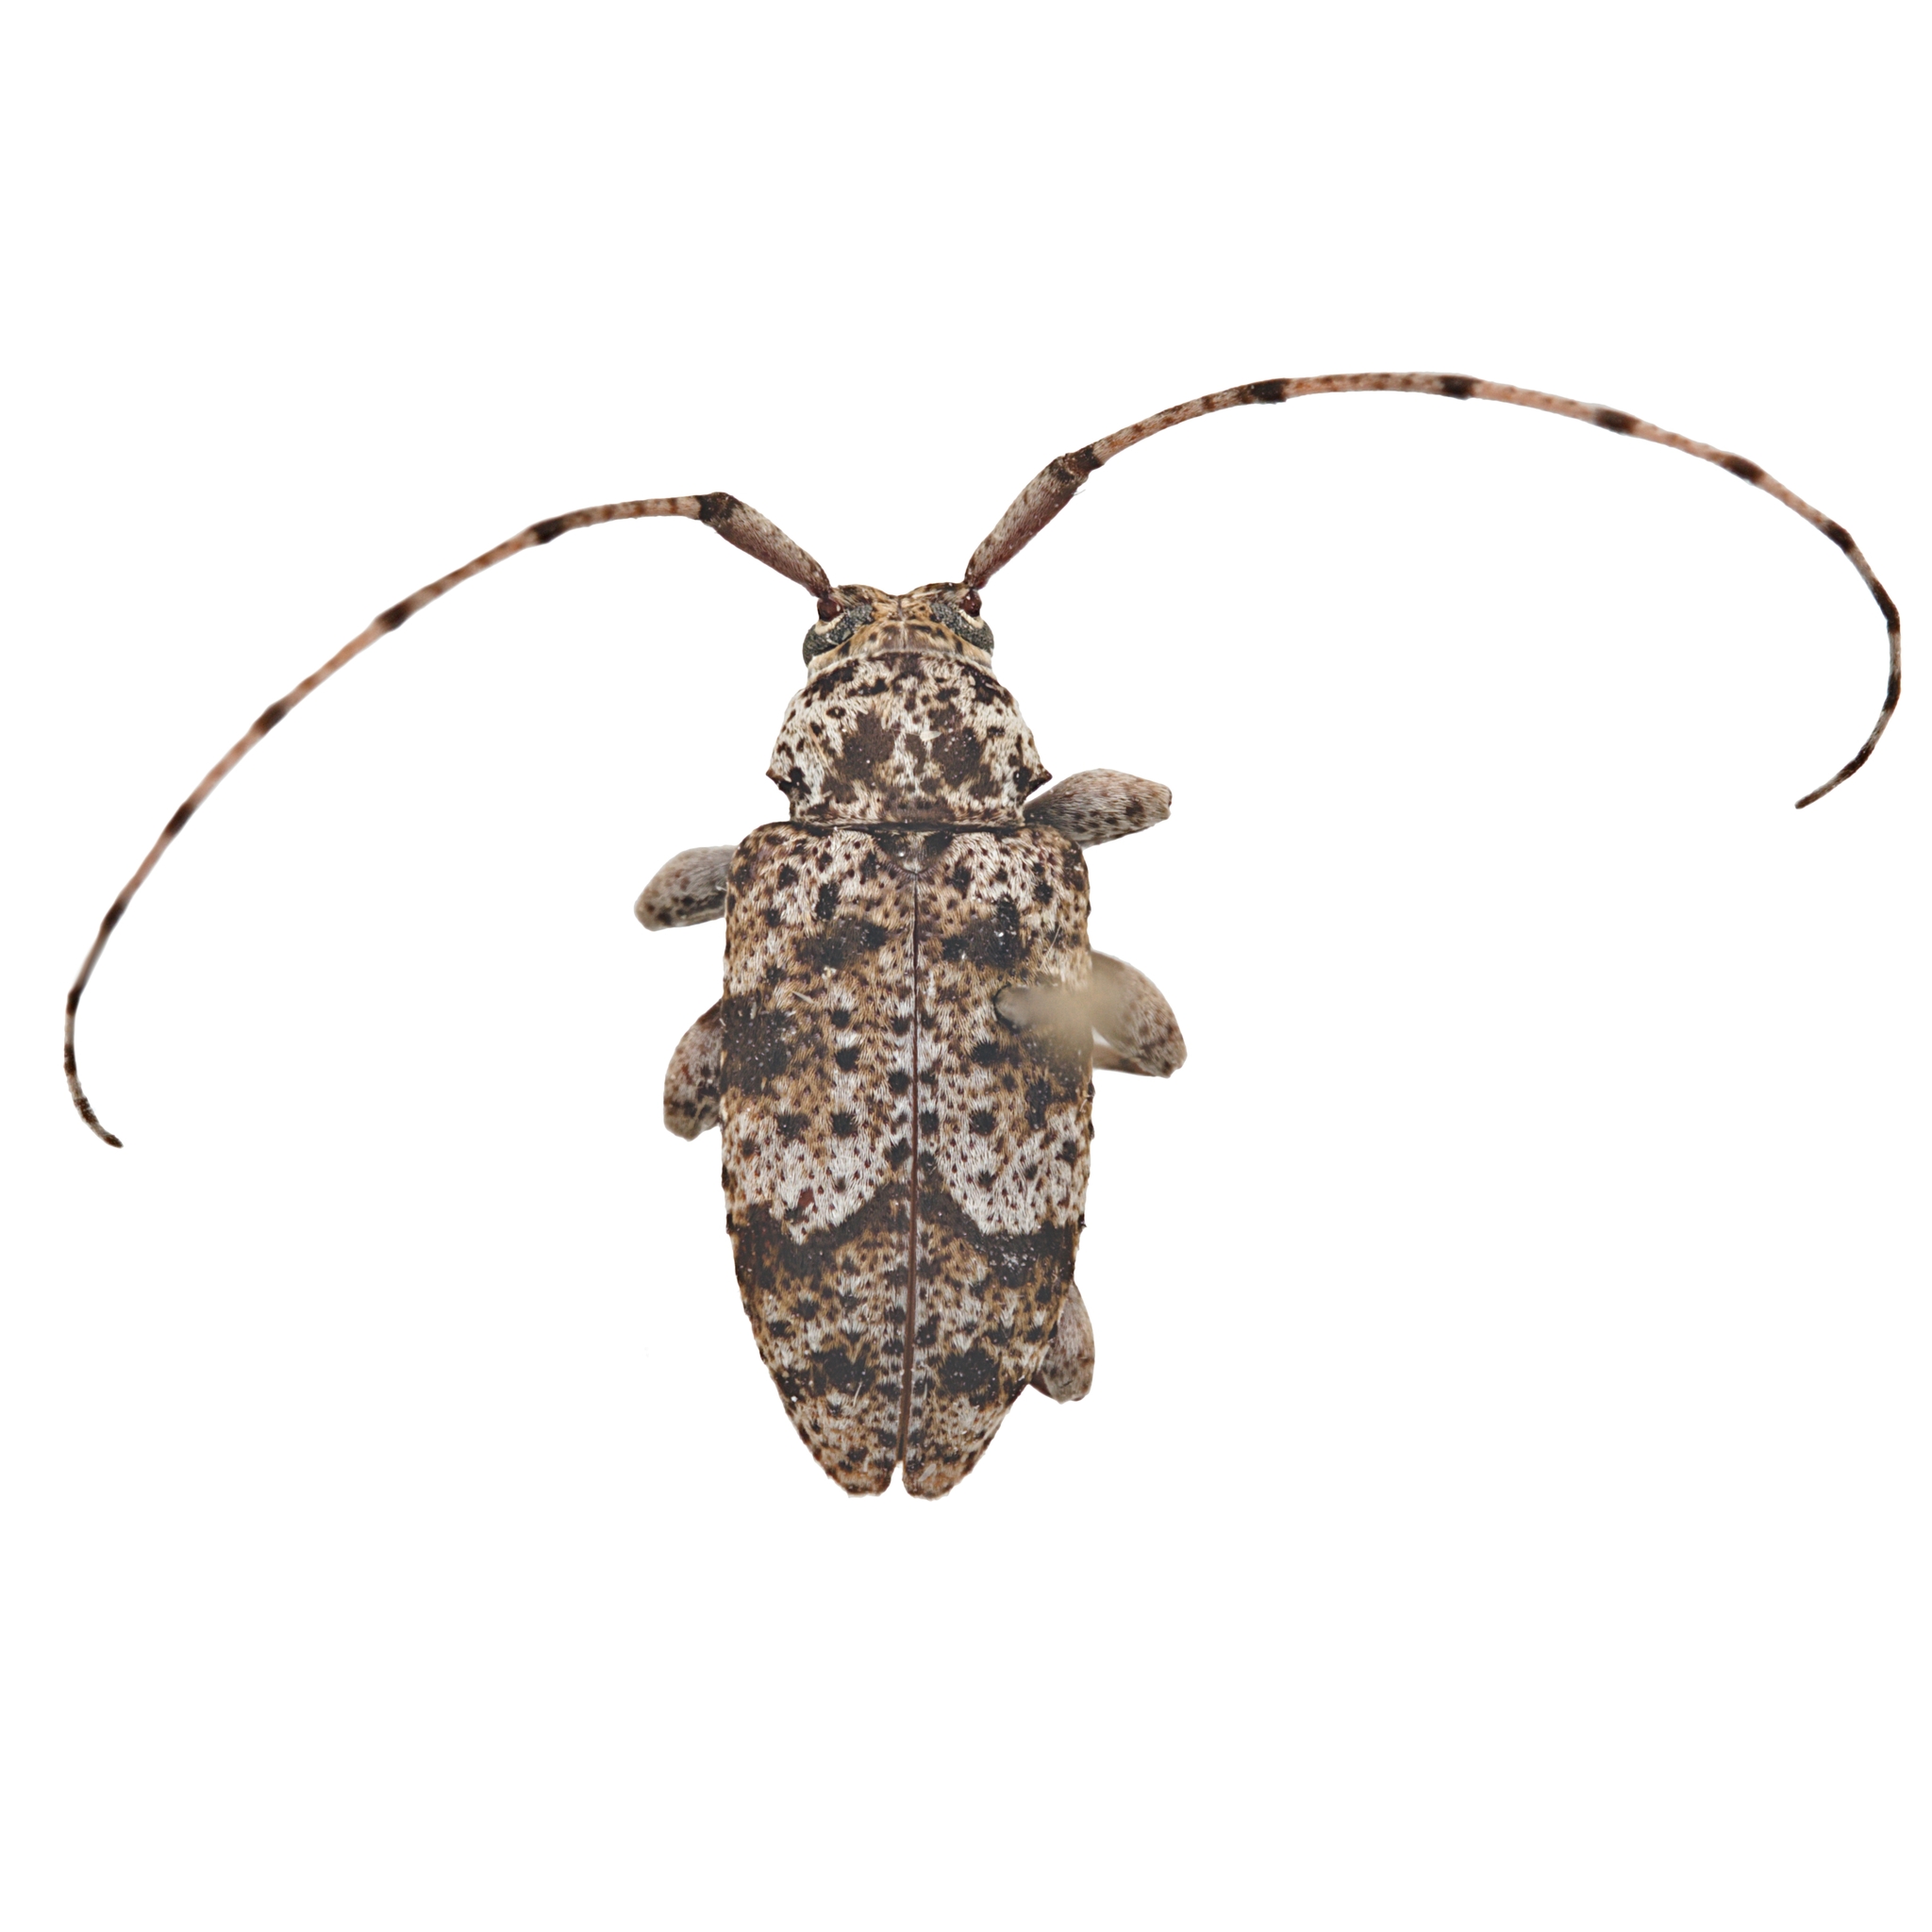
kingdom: Animalia
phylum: Arthropoda
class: Insecta
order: Coleoptera
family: Cerambycidae
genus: Sternidius
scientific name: Sternidius wiltii
